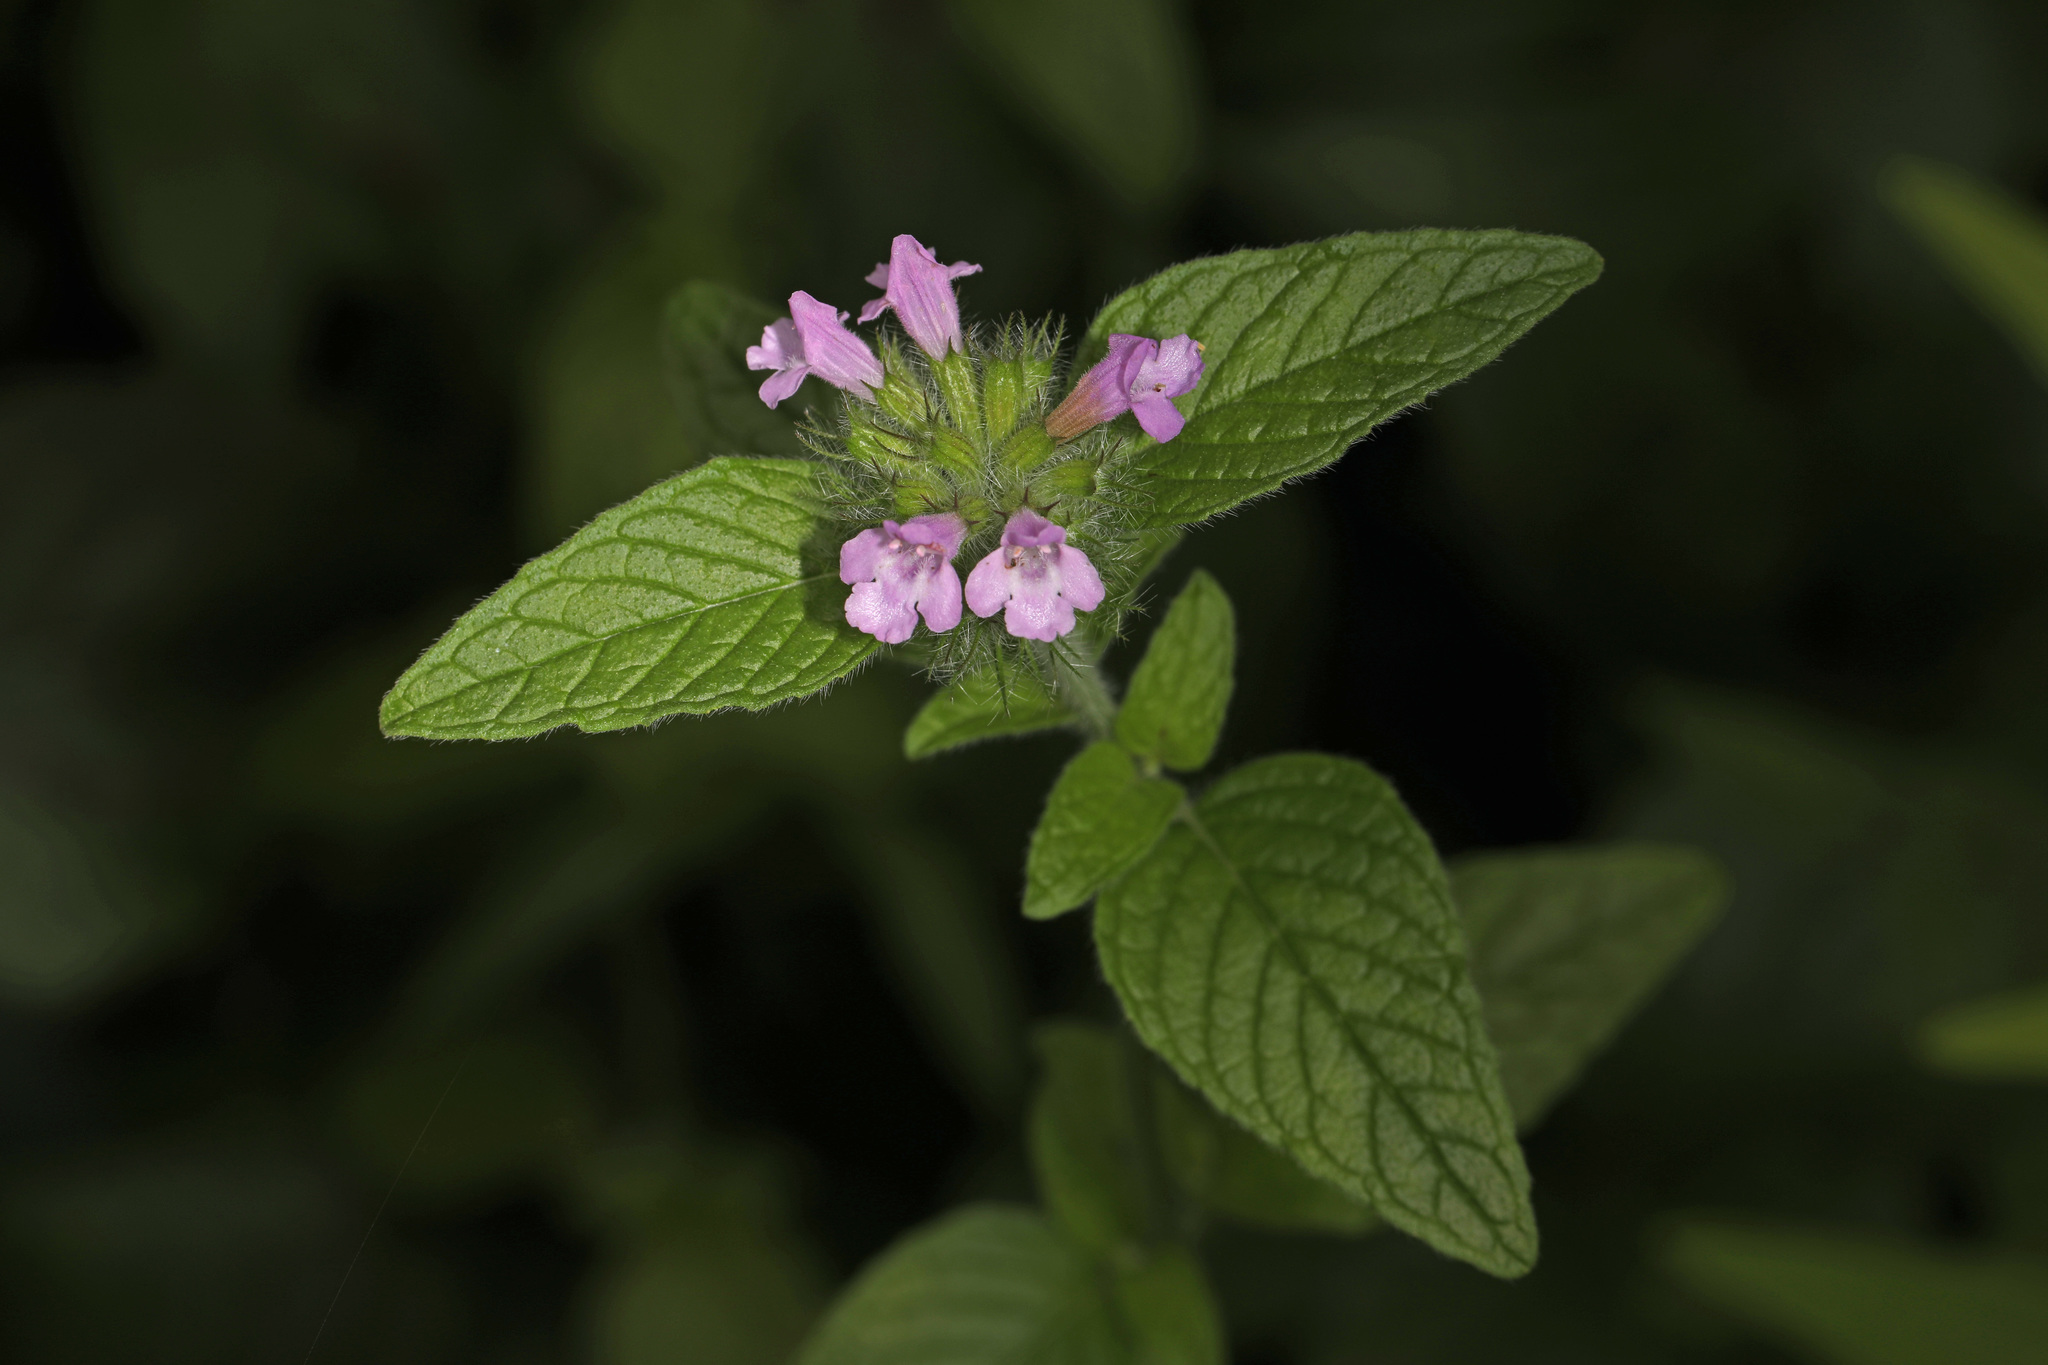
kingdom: Plantae
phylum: Tracheophyta
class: Magnoliopsida
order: Lamiales
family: Lamiaceae
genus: Clinopodium
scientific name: Clinopodium vulgare
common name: Wild basil
